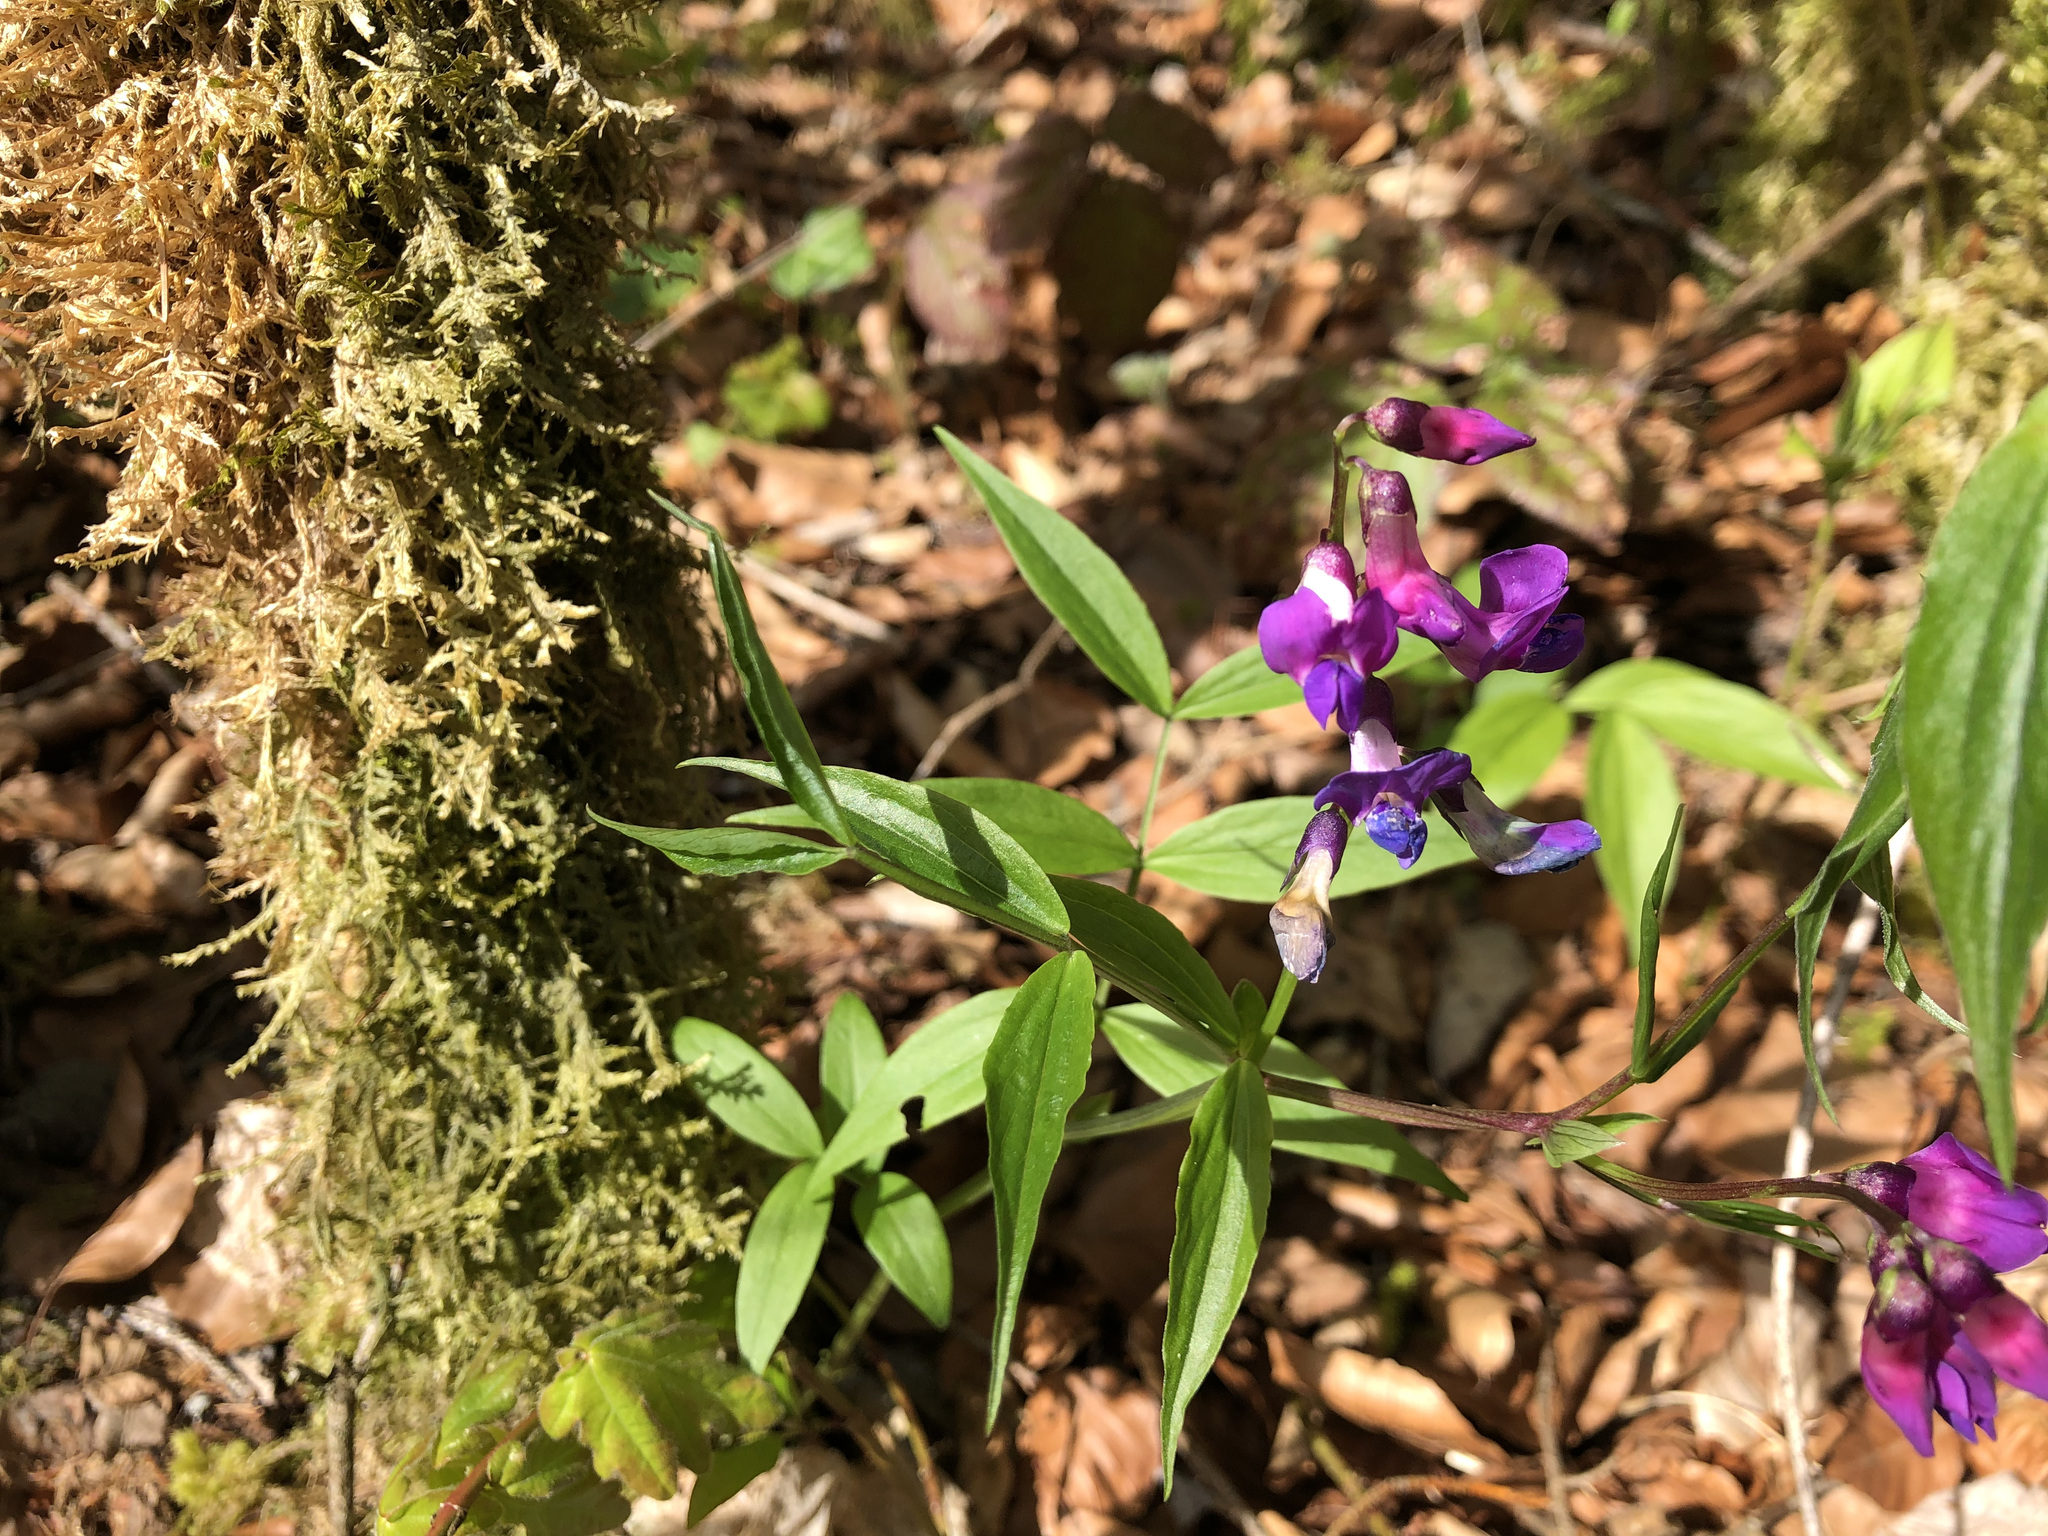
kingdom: Plantae
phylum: Tracheophyta
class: Magnoliopsida
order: Fabales
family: Fabaceae
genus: Lathyrus
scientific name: Lathyrus vernus
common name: Spring pea
